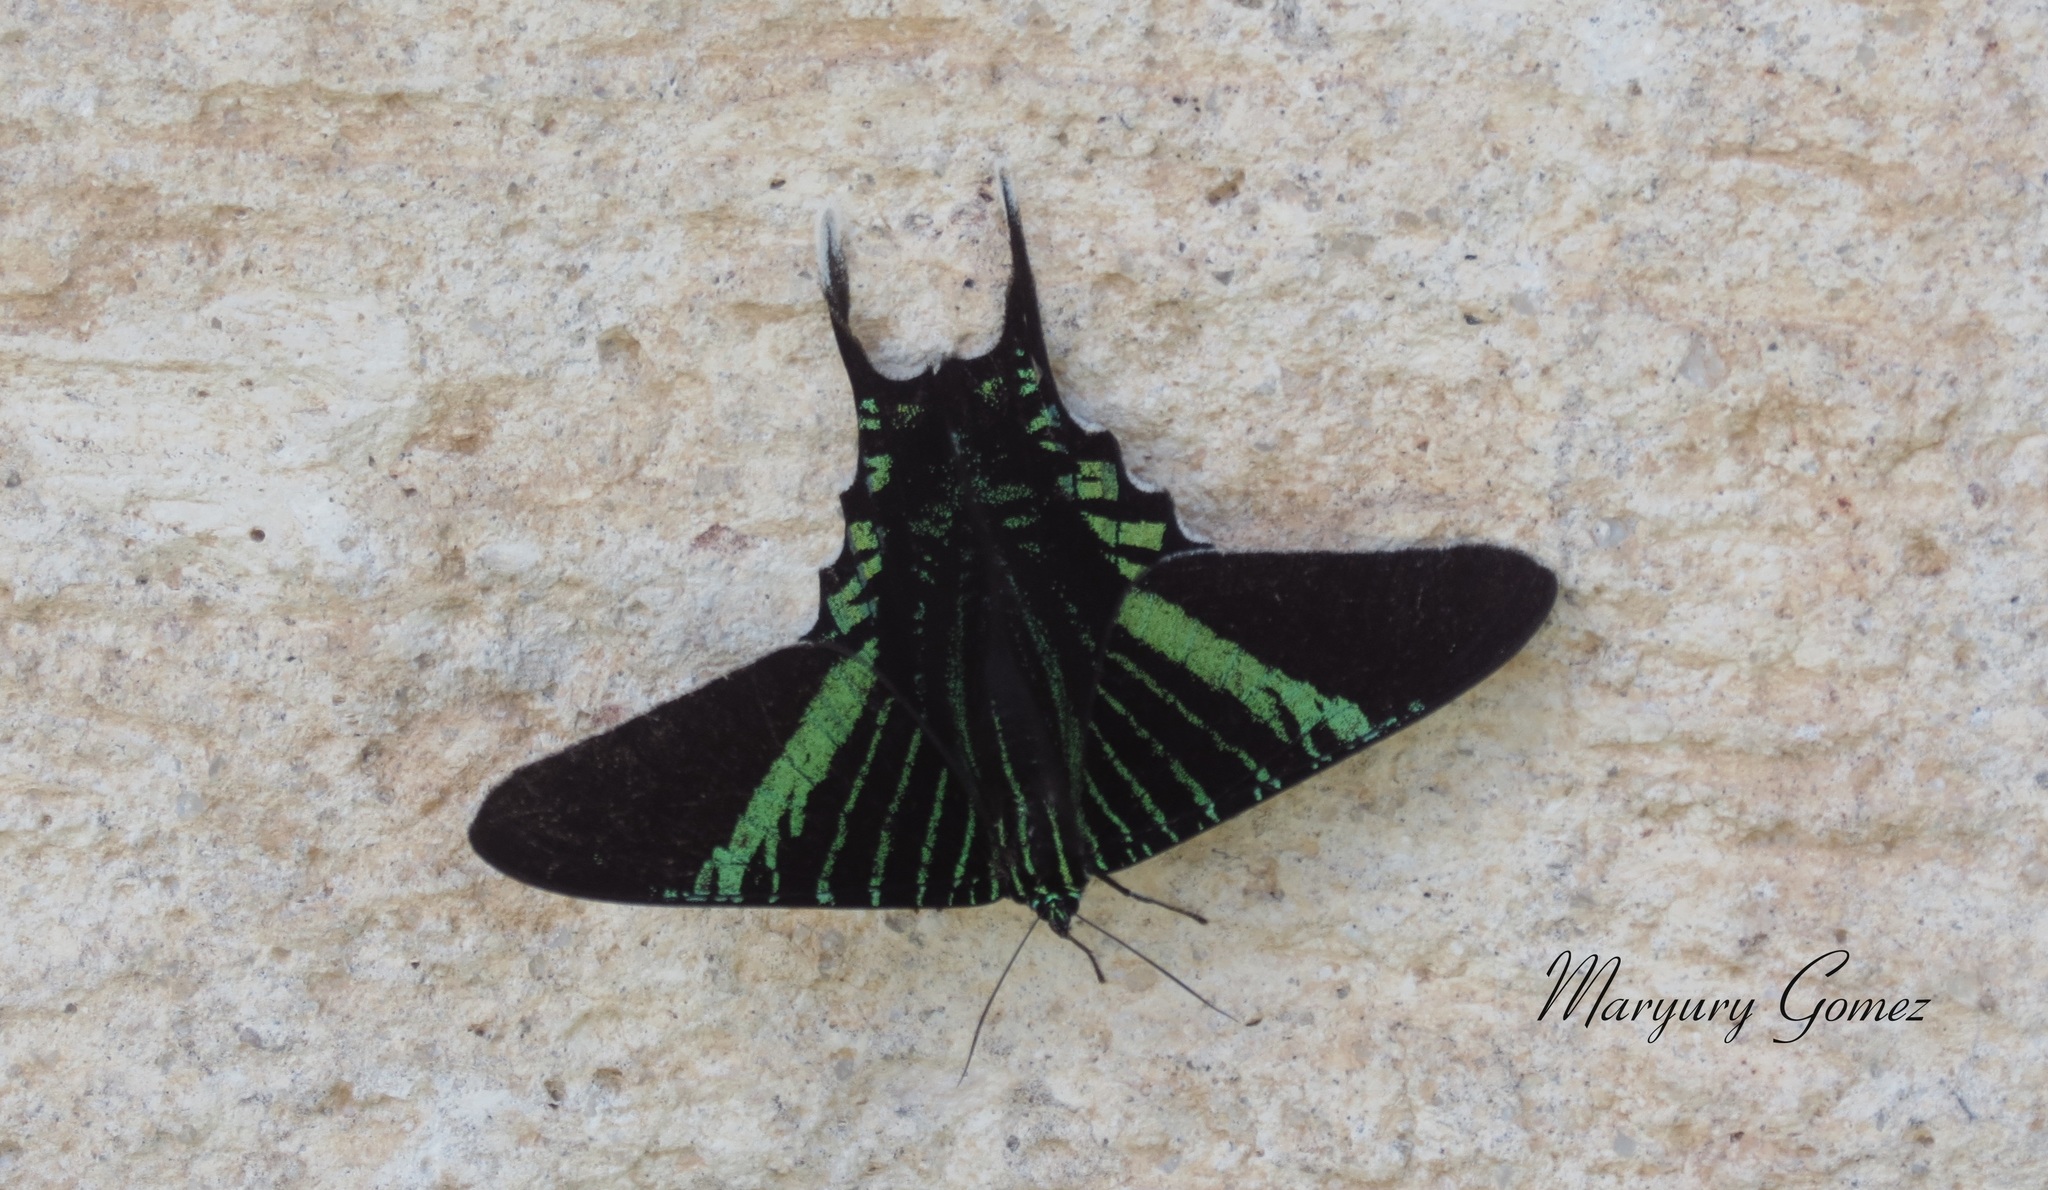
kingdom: Animalia
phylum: Arthropoda
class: Insecta
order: Lepidoptera
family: Uraniidae
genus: Urania
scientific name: Urania fulgens
